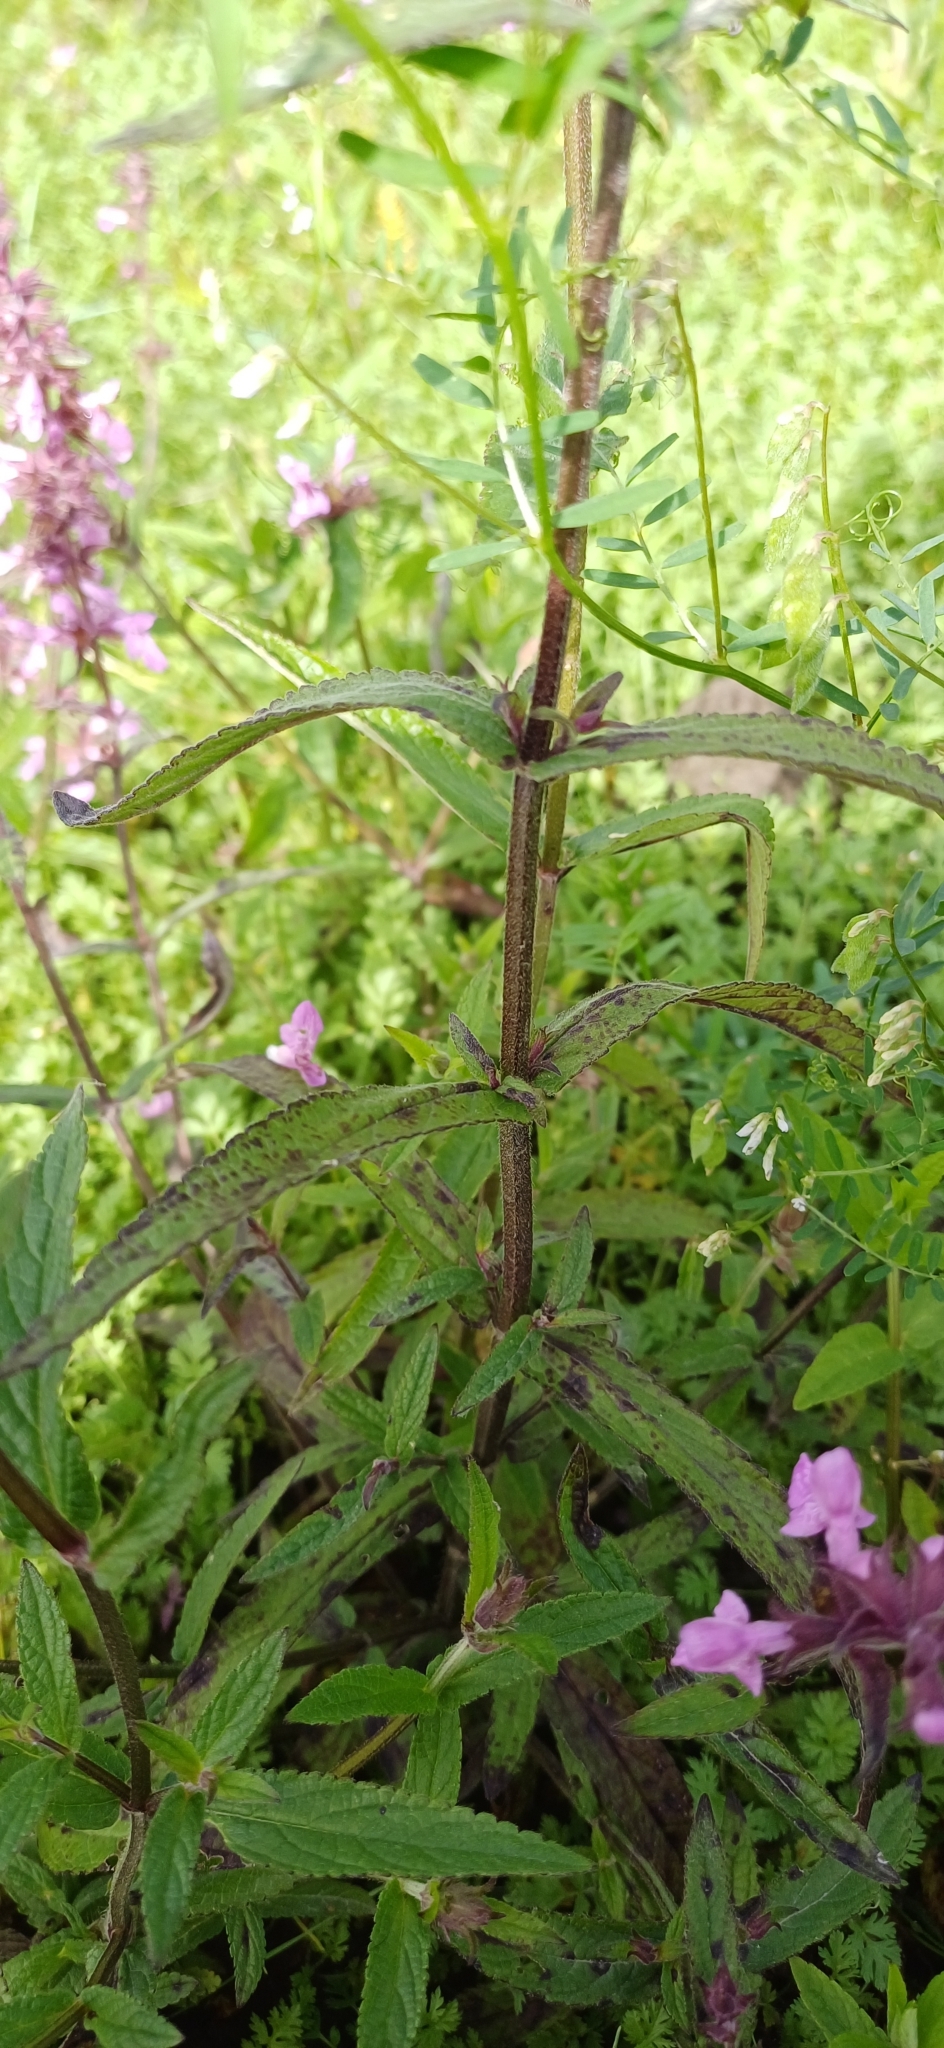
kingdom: Plantae
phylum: Tracheophyta
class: Magnoliopsida
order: Lamiales
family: Lamiaceae
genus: Stachys
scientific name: Stachys palustris
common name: Marsh woundwort
